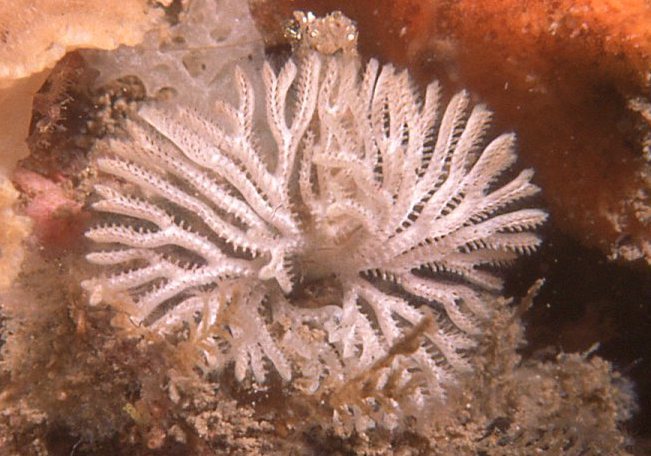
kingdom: Animalia
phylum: Bryozoa
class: Stenolaemata
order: Cyclostomatida
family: Crisinidae
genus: Mesonea
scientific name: Mesonea radians
